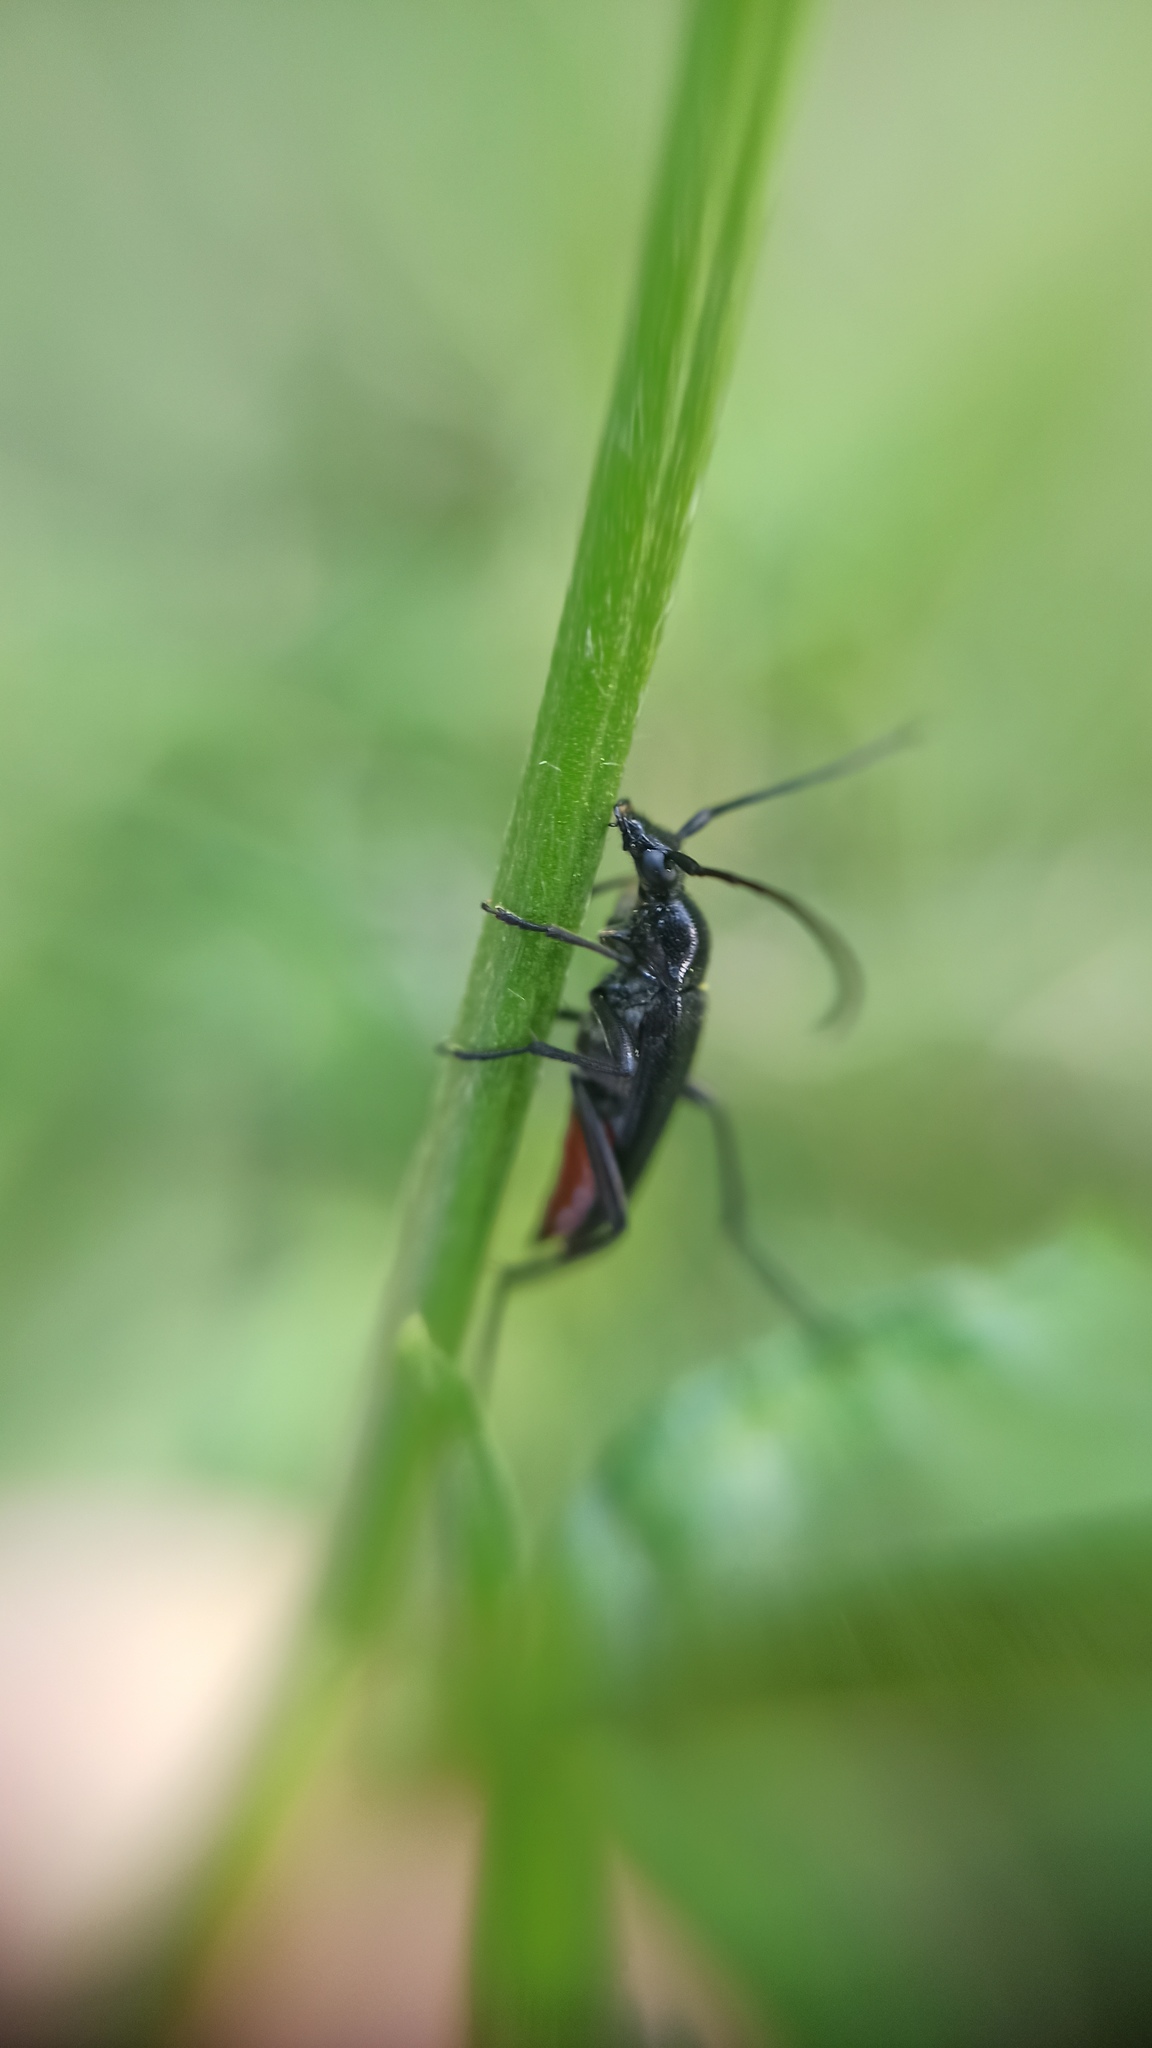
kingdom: Animalia
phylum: Arthropoda
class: Insecta
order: Coleoptera
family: Cerambycidae
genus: Stenurella
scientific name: Stenurella nigra
